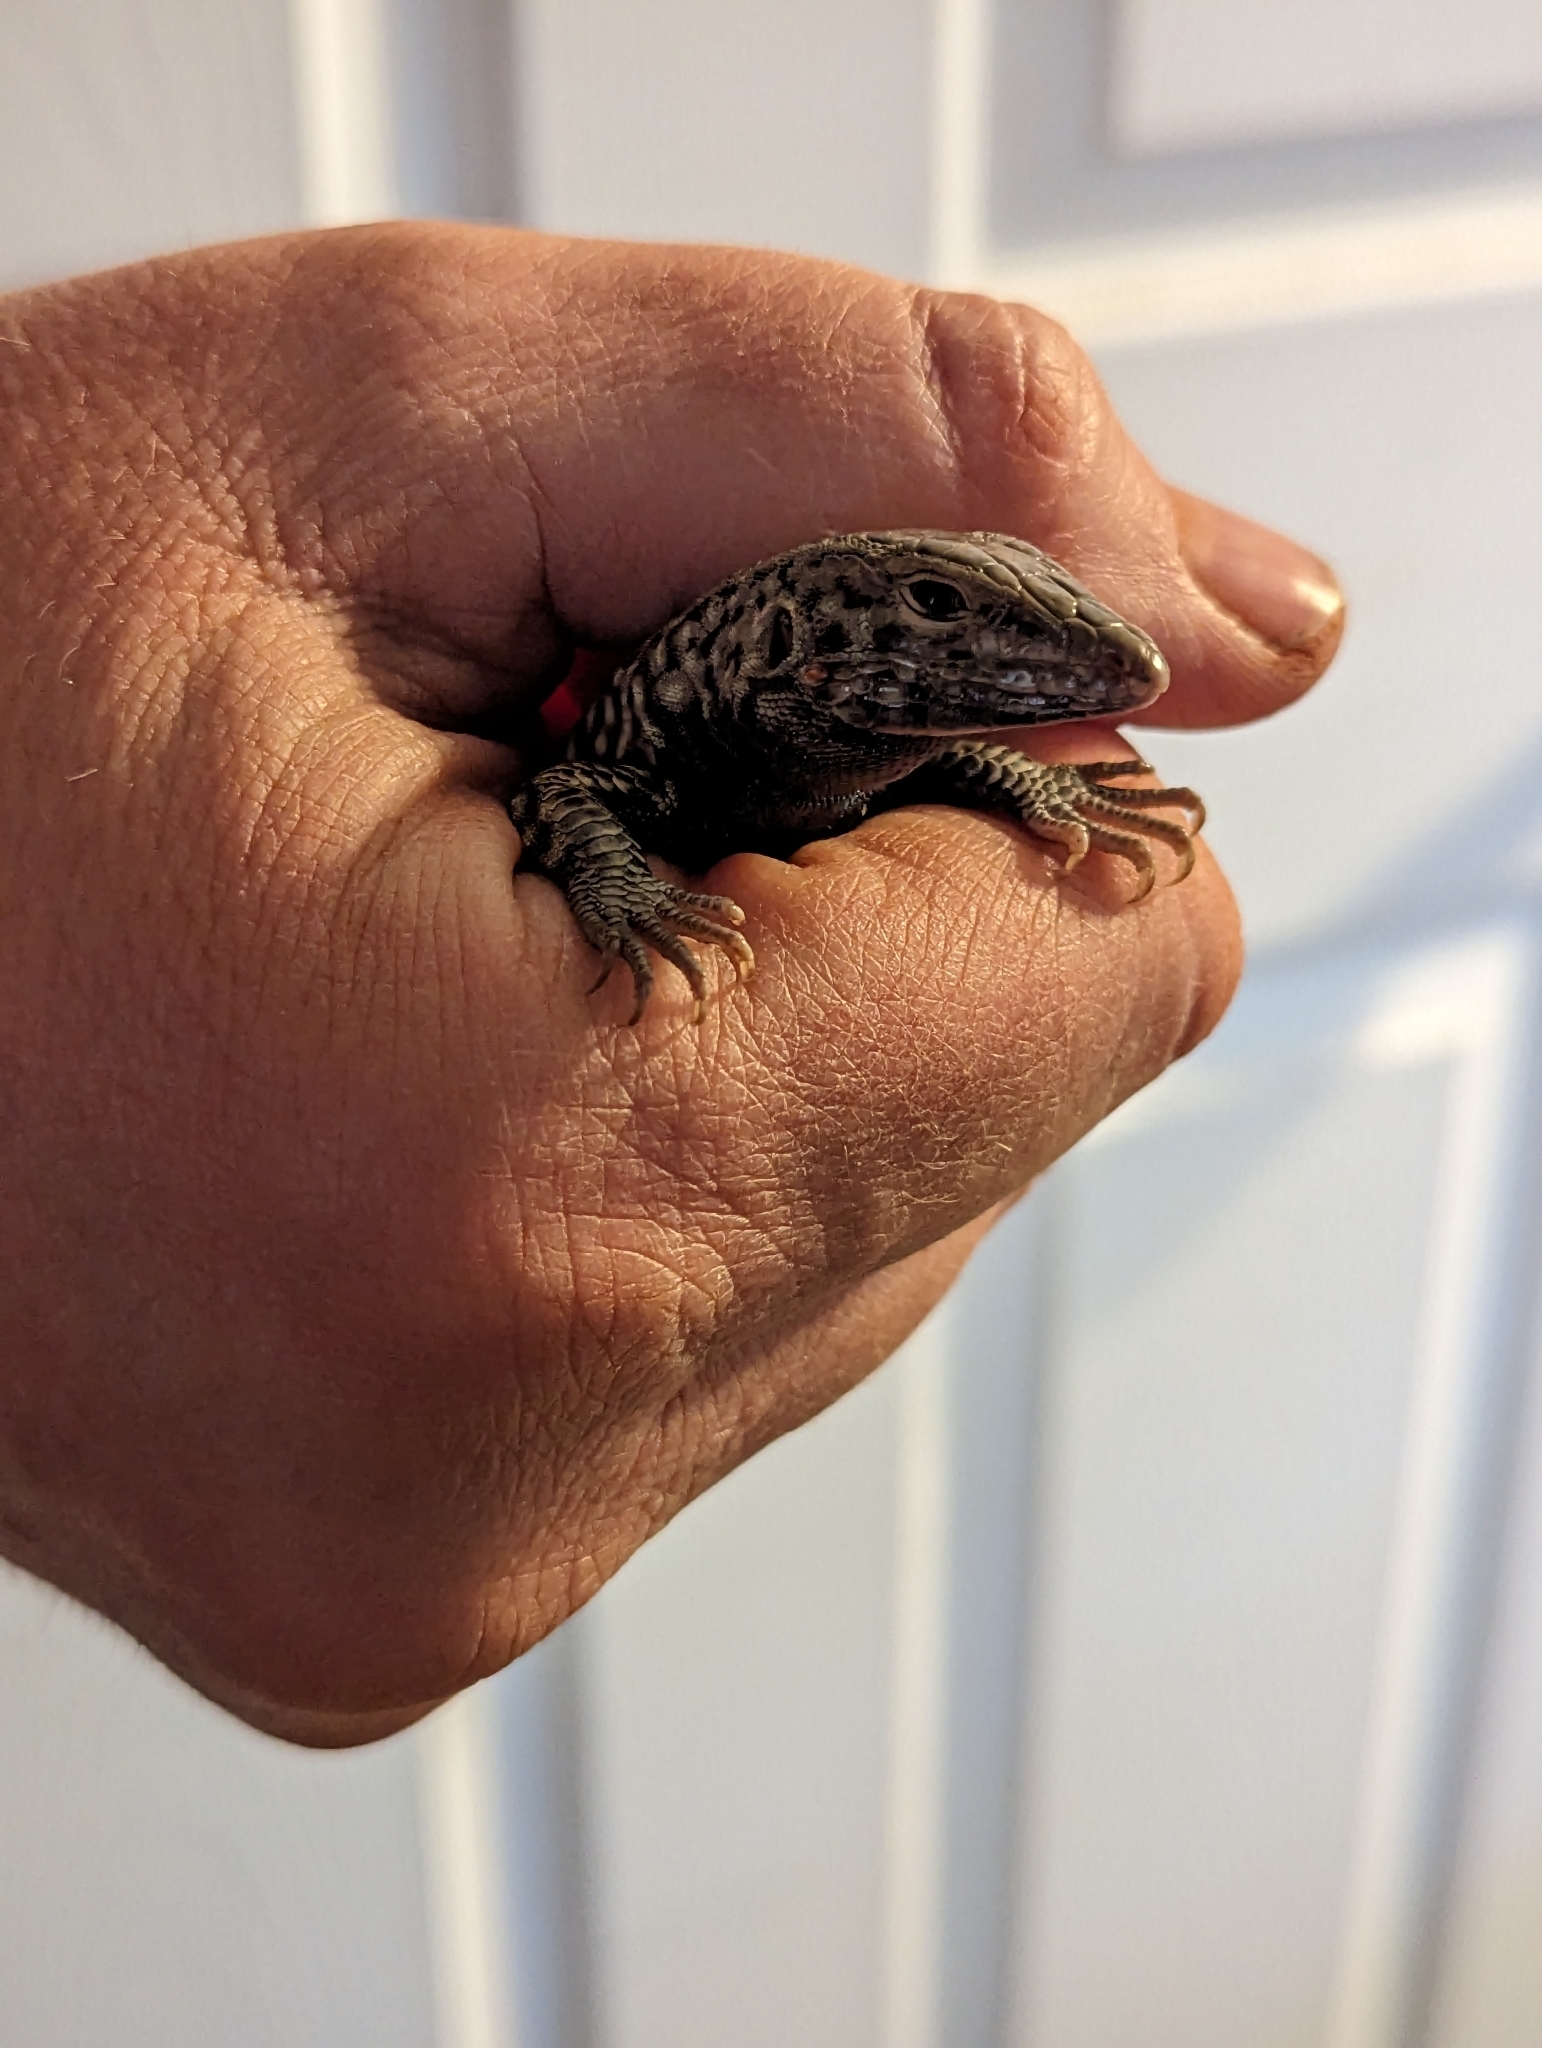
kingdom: Animalia
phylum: Chordata
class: Squamata
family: Teiidae
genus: Aspidoscelis
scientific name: Aspidoscelis tigris
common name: Tiger whiptail
